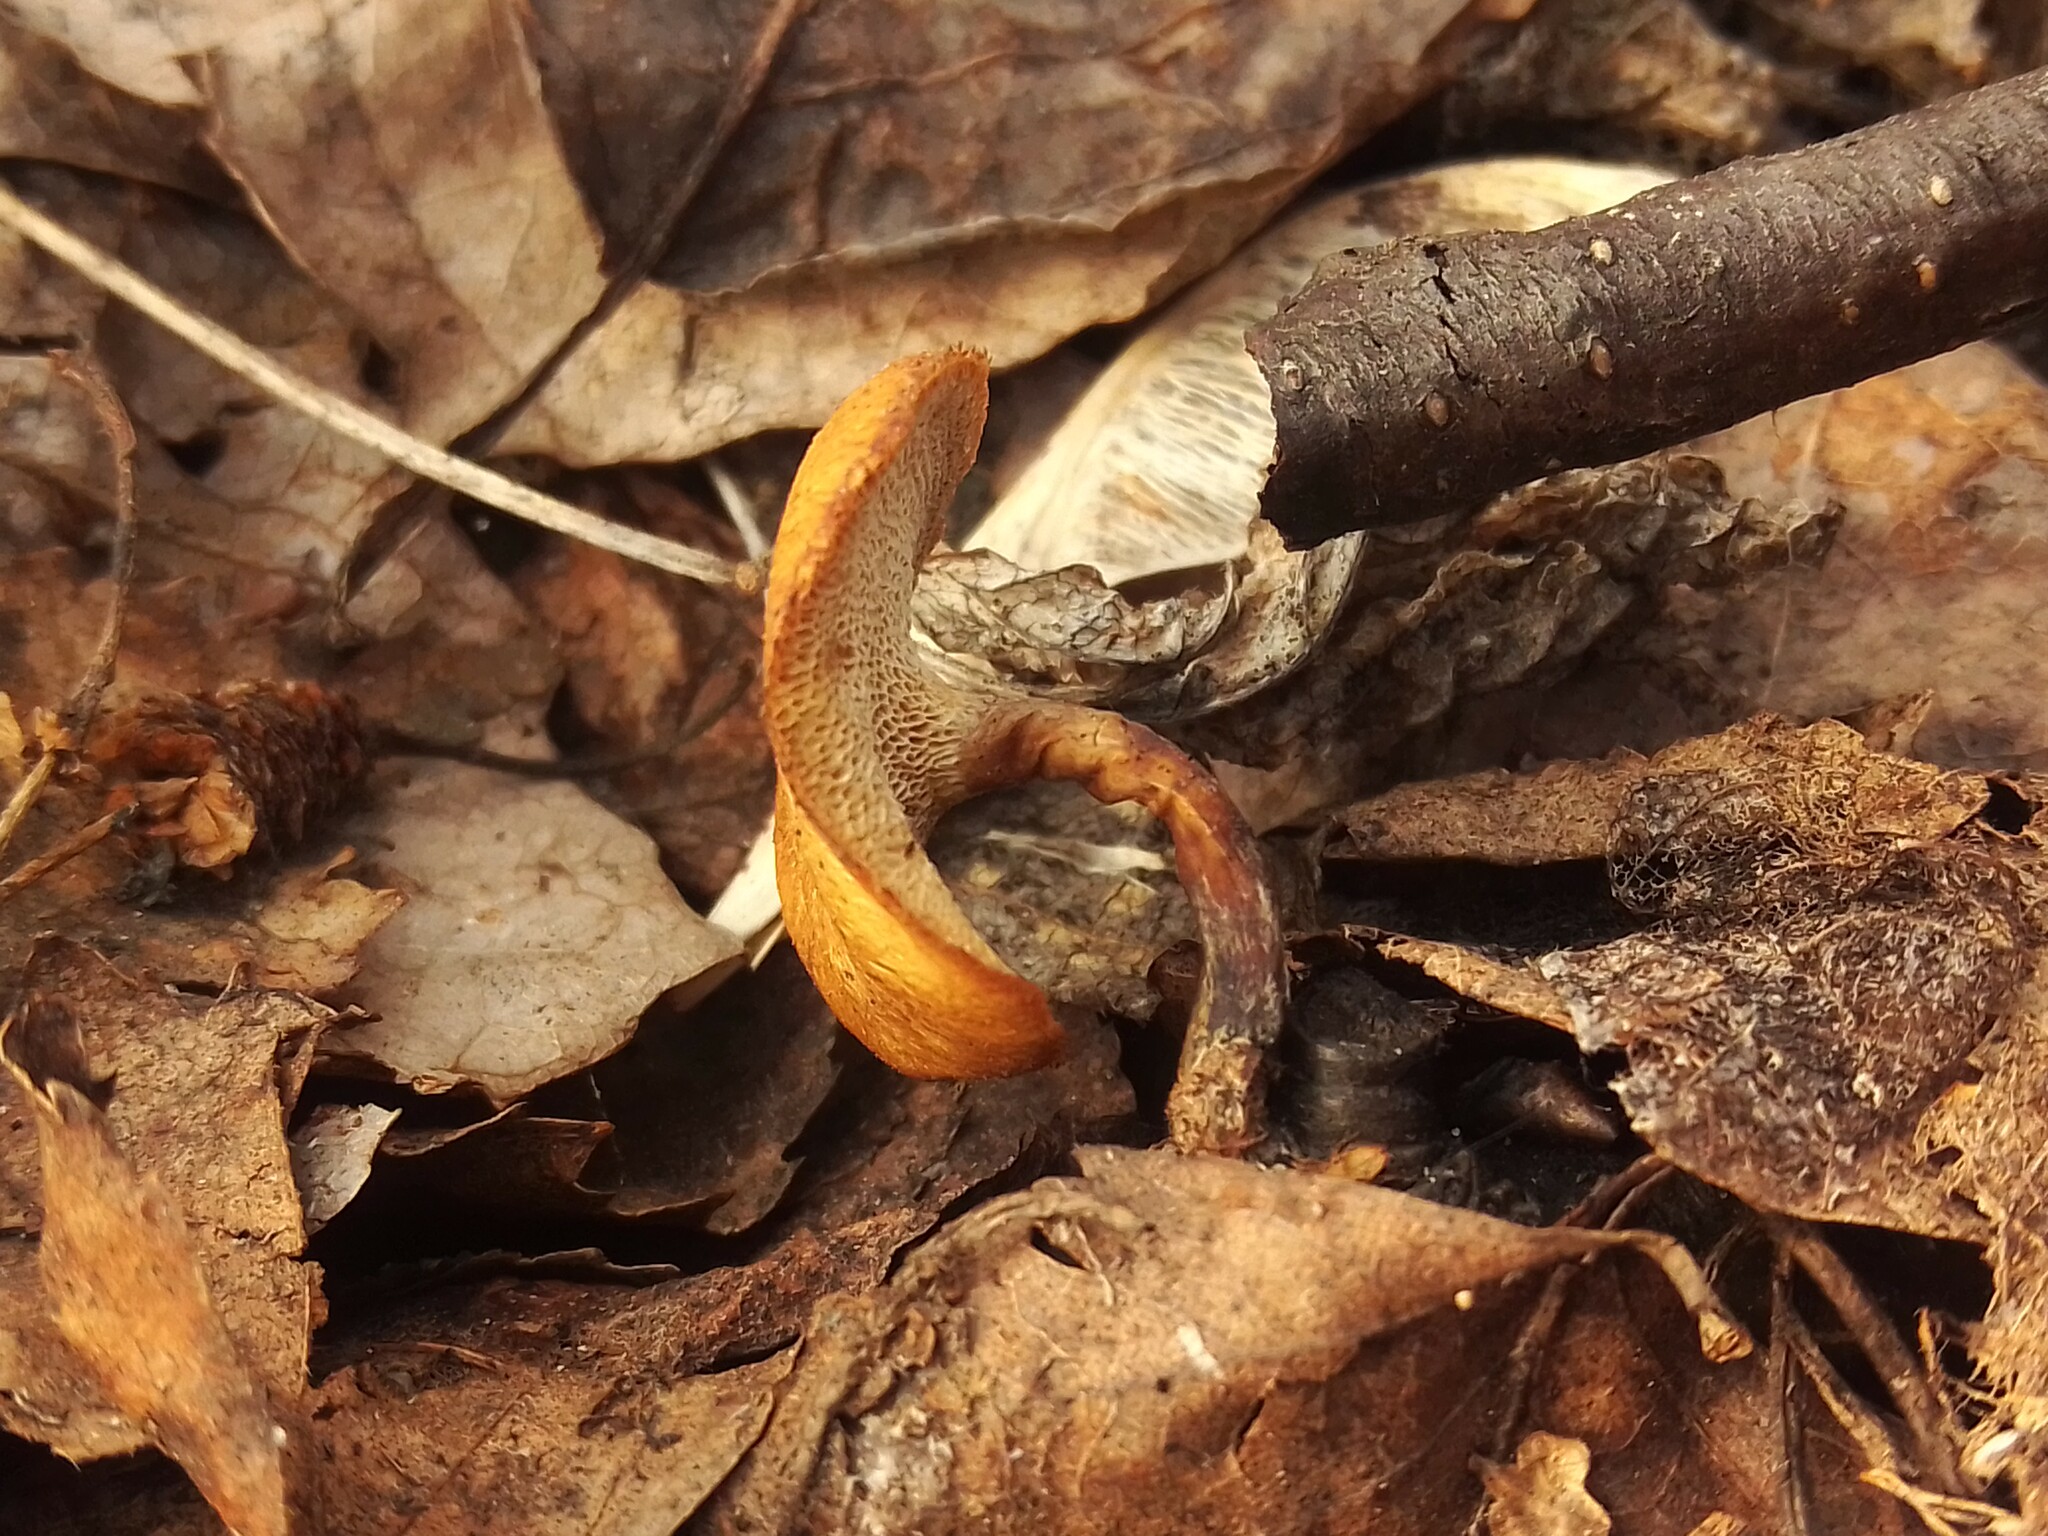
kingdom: Fungi
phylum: Basidiomycota
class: Agaricomycetes
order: Polyporales
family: Polyporaceae
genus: Lentinus
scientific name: Lentinus brumalis
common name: Winter polypore
